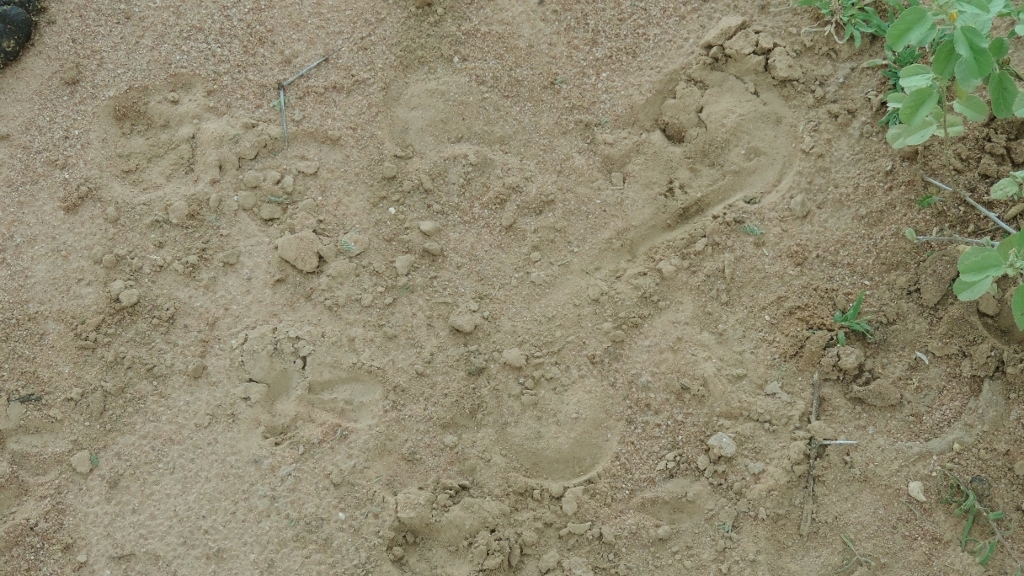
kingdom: Animalia
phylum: Chordata
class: Mammalia
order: Perissodactyla
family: Equidae
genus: Equus
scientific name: Equus quagga
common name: Plains zebra
